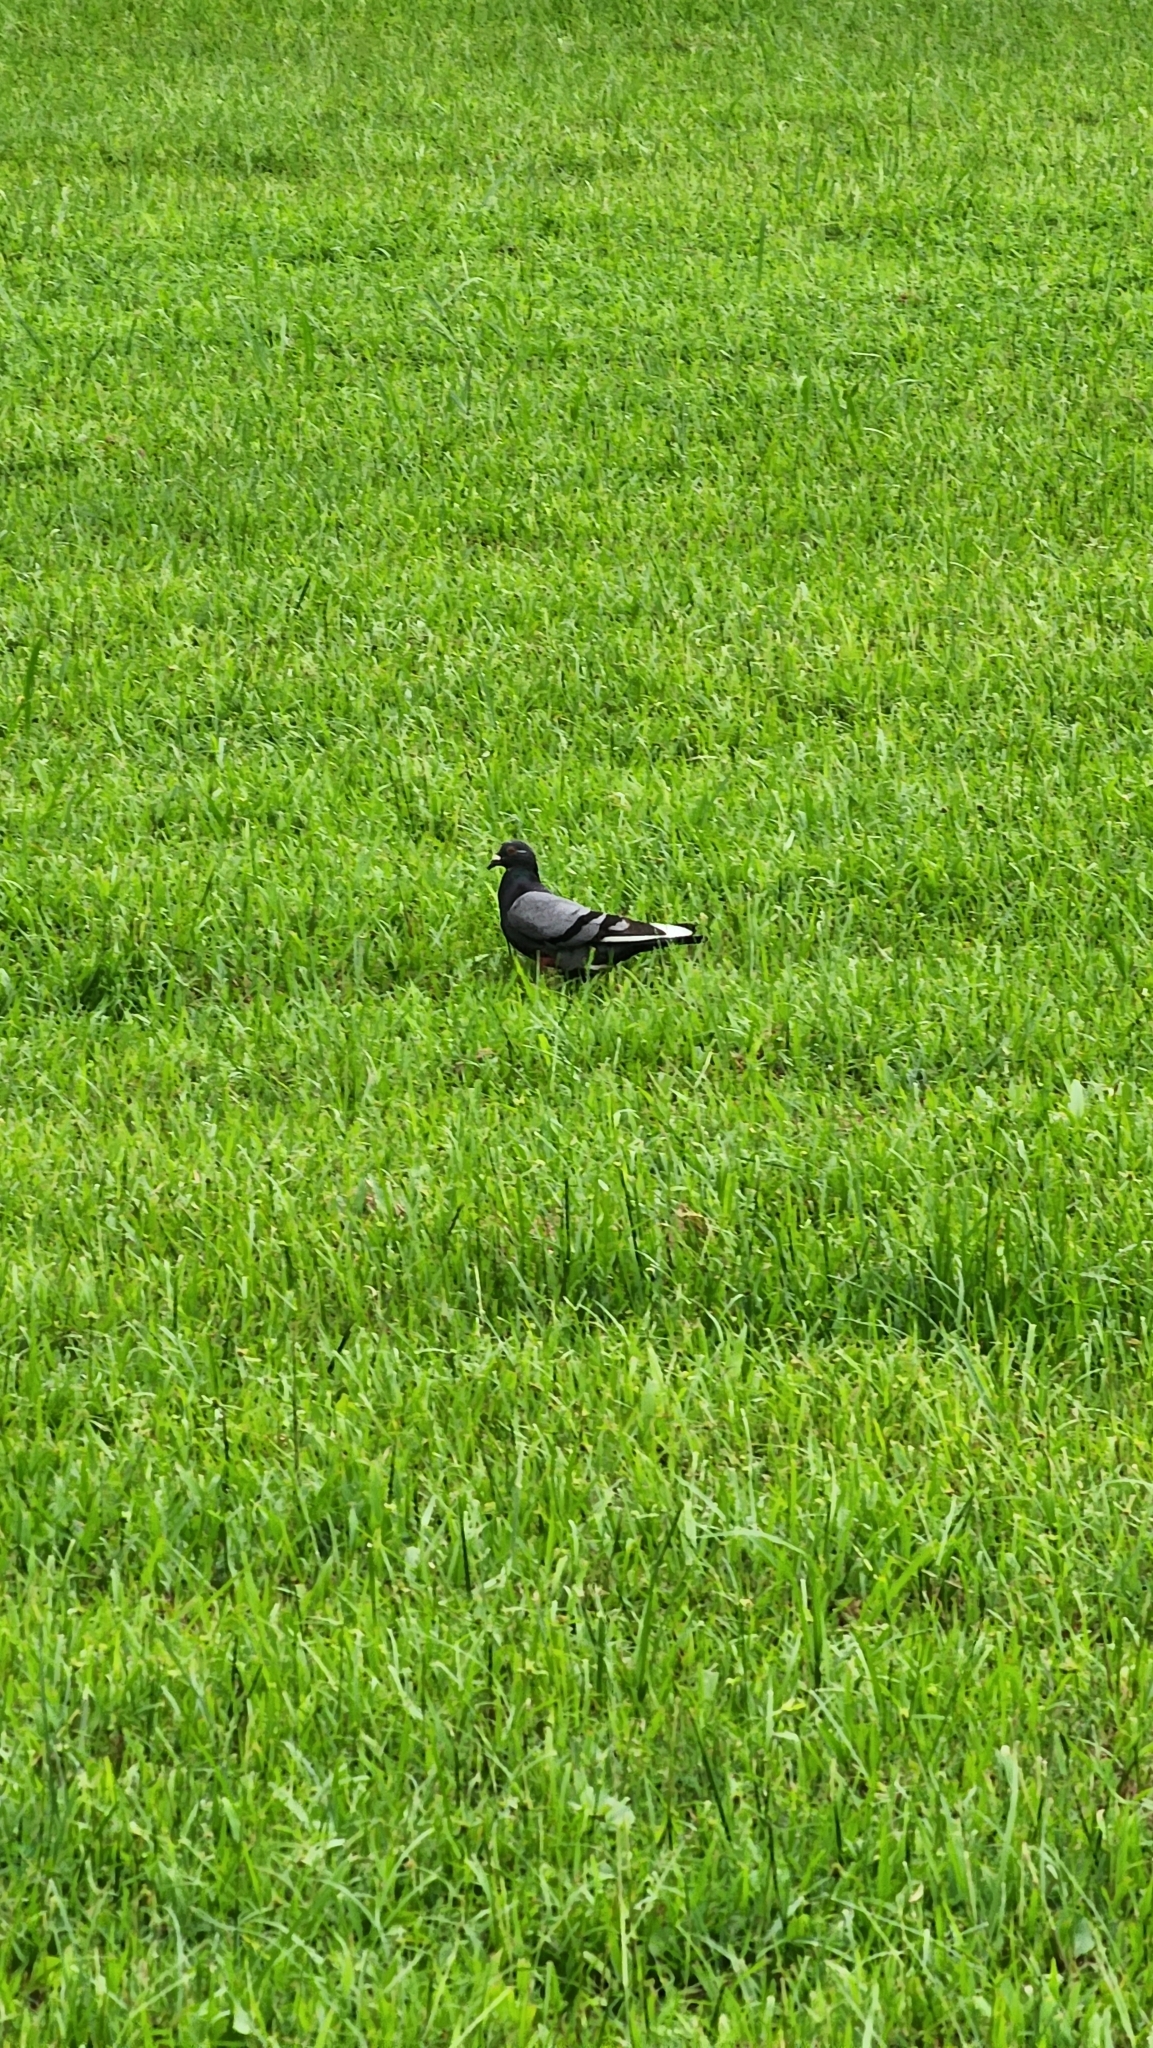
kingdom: Animalia
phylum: Chordata
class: Aves
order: Columbiformes
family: Columbidae
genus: Columba
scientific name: Columba livia
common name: Rock pigeon
